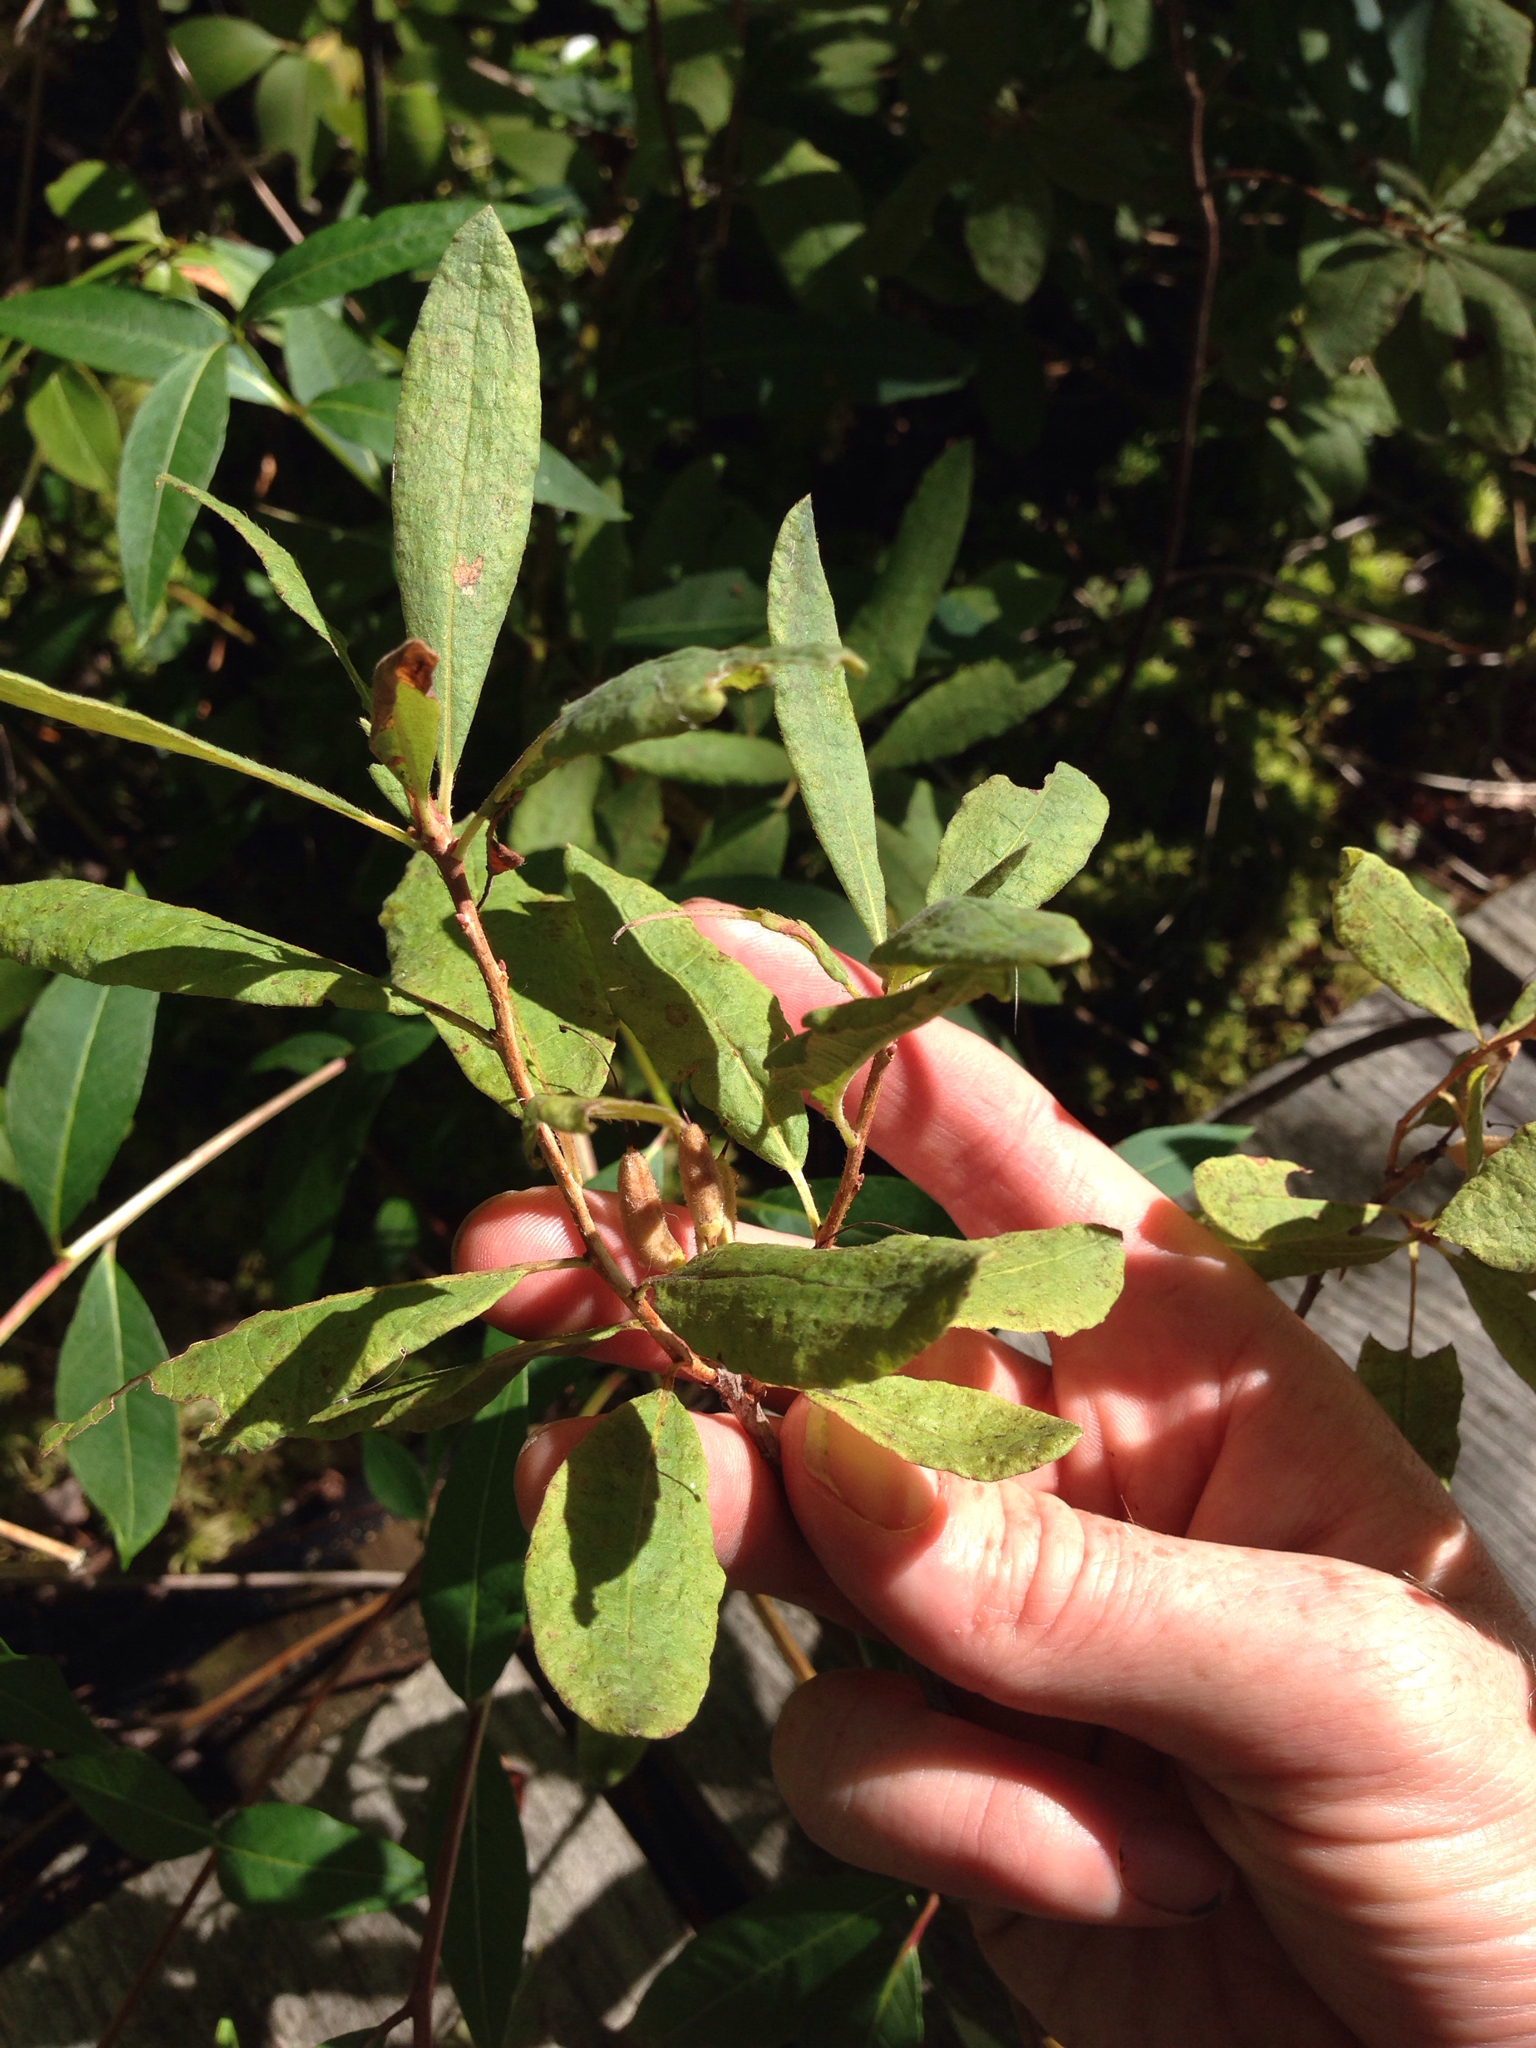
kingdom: Plantae
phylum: Tracheophyta
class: Magnoliopsida
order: Ericales
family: Ericaceae
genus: Rhododendron
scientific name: Rhododendron canadense
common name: Rhodora
